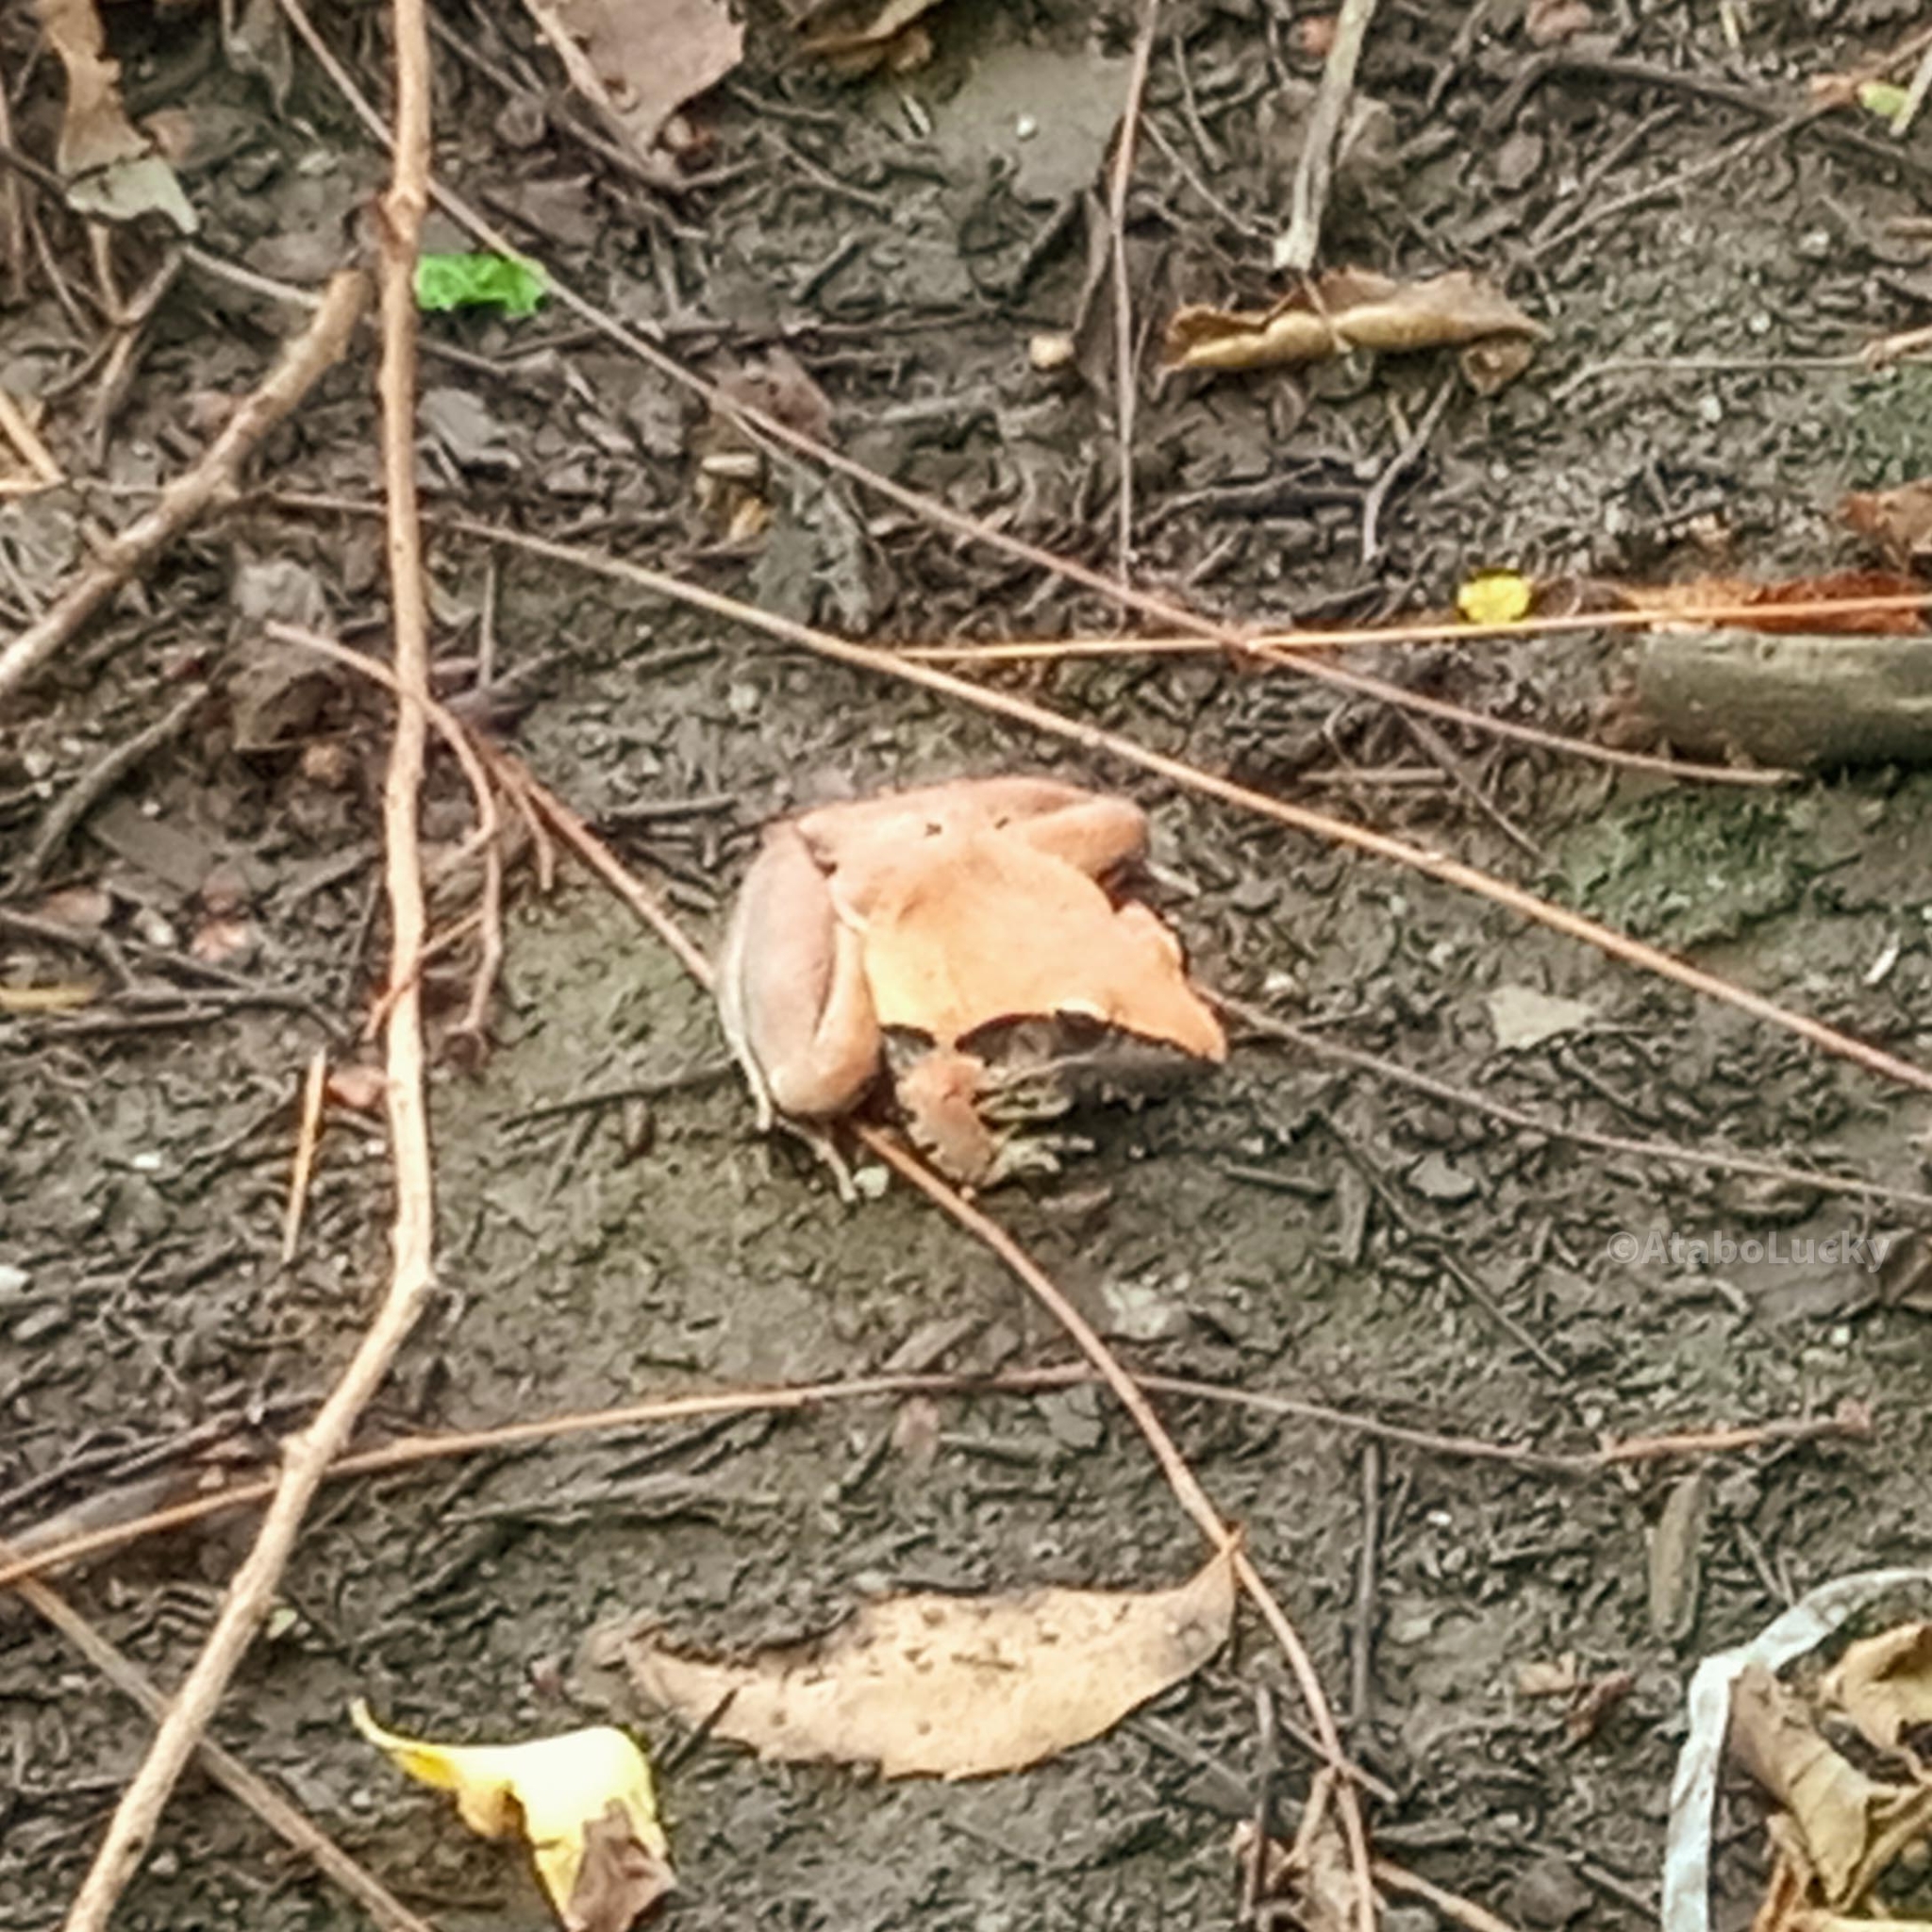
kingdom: Animalia
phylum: Chordata
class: Amphibia
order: Anura
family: Ptychadenidae
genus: Ptychadena
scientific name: Ptychadena tellinii
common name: Central grassland frog
